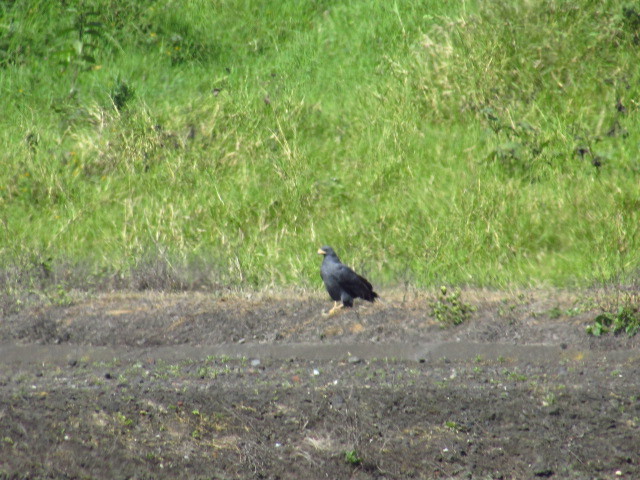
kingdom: Animalia
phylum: Chordata
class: Aves
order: Accipitriformes
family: Accipitridae
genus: Buteogallus
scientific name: Buteogallus anthracinus
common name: Common black hawk
